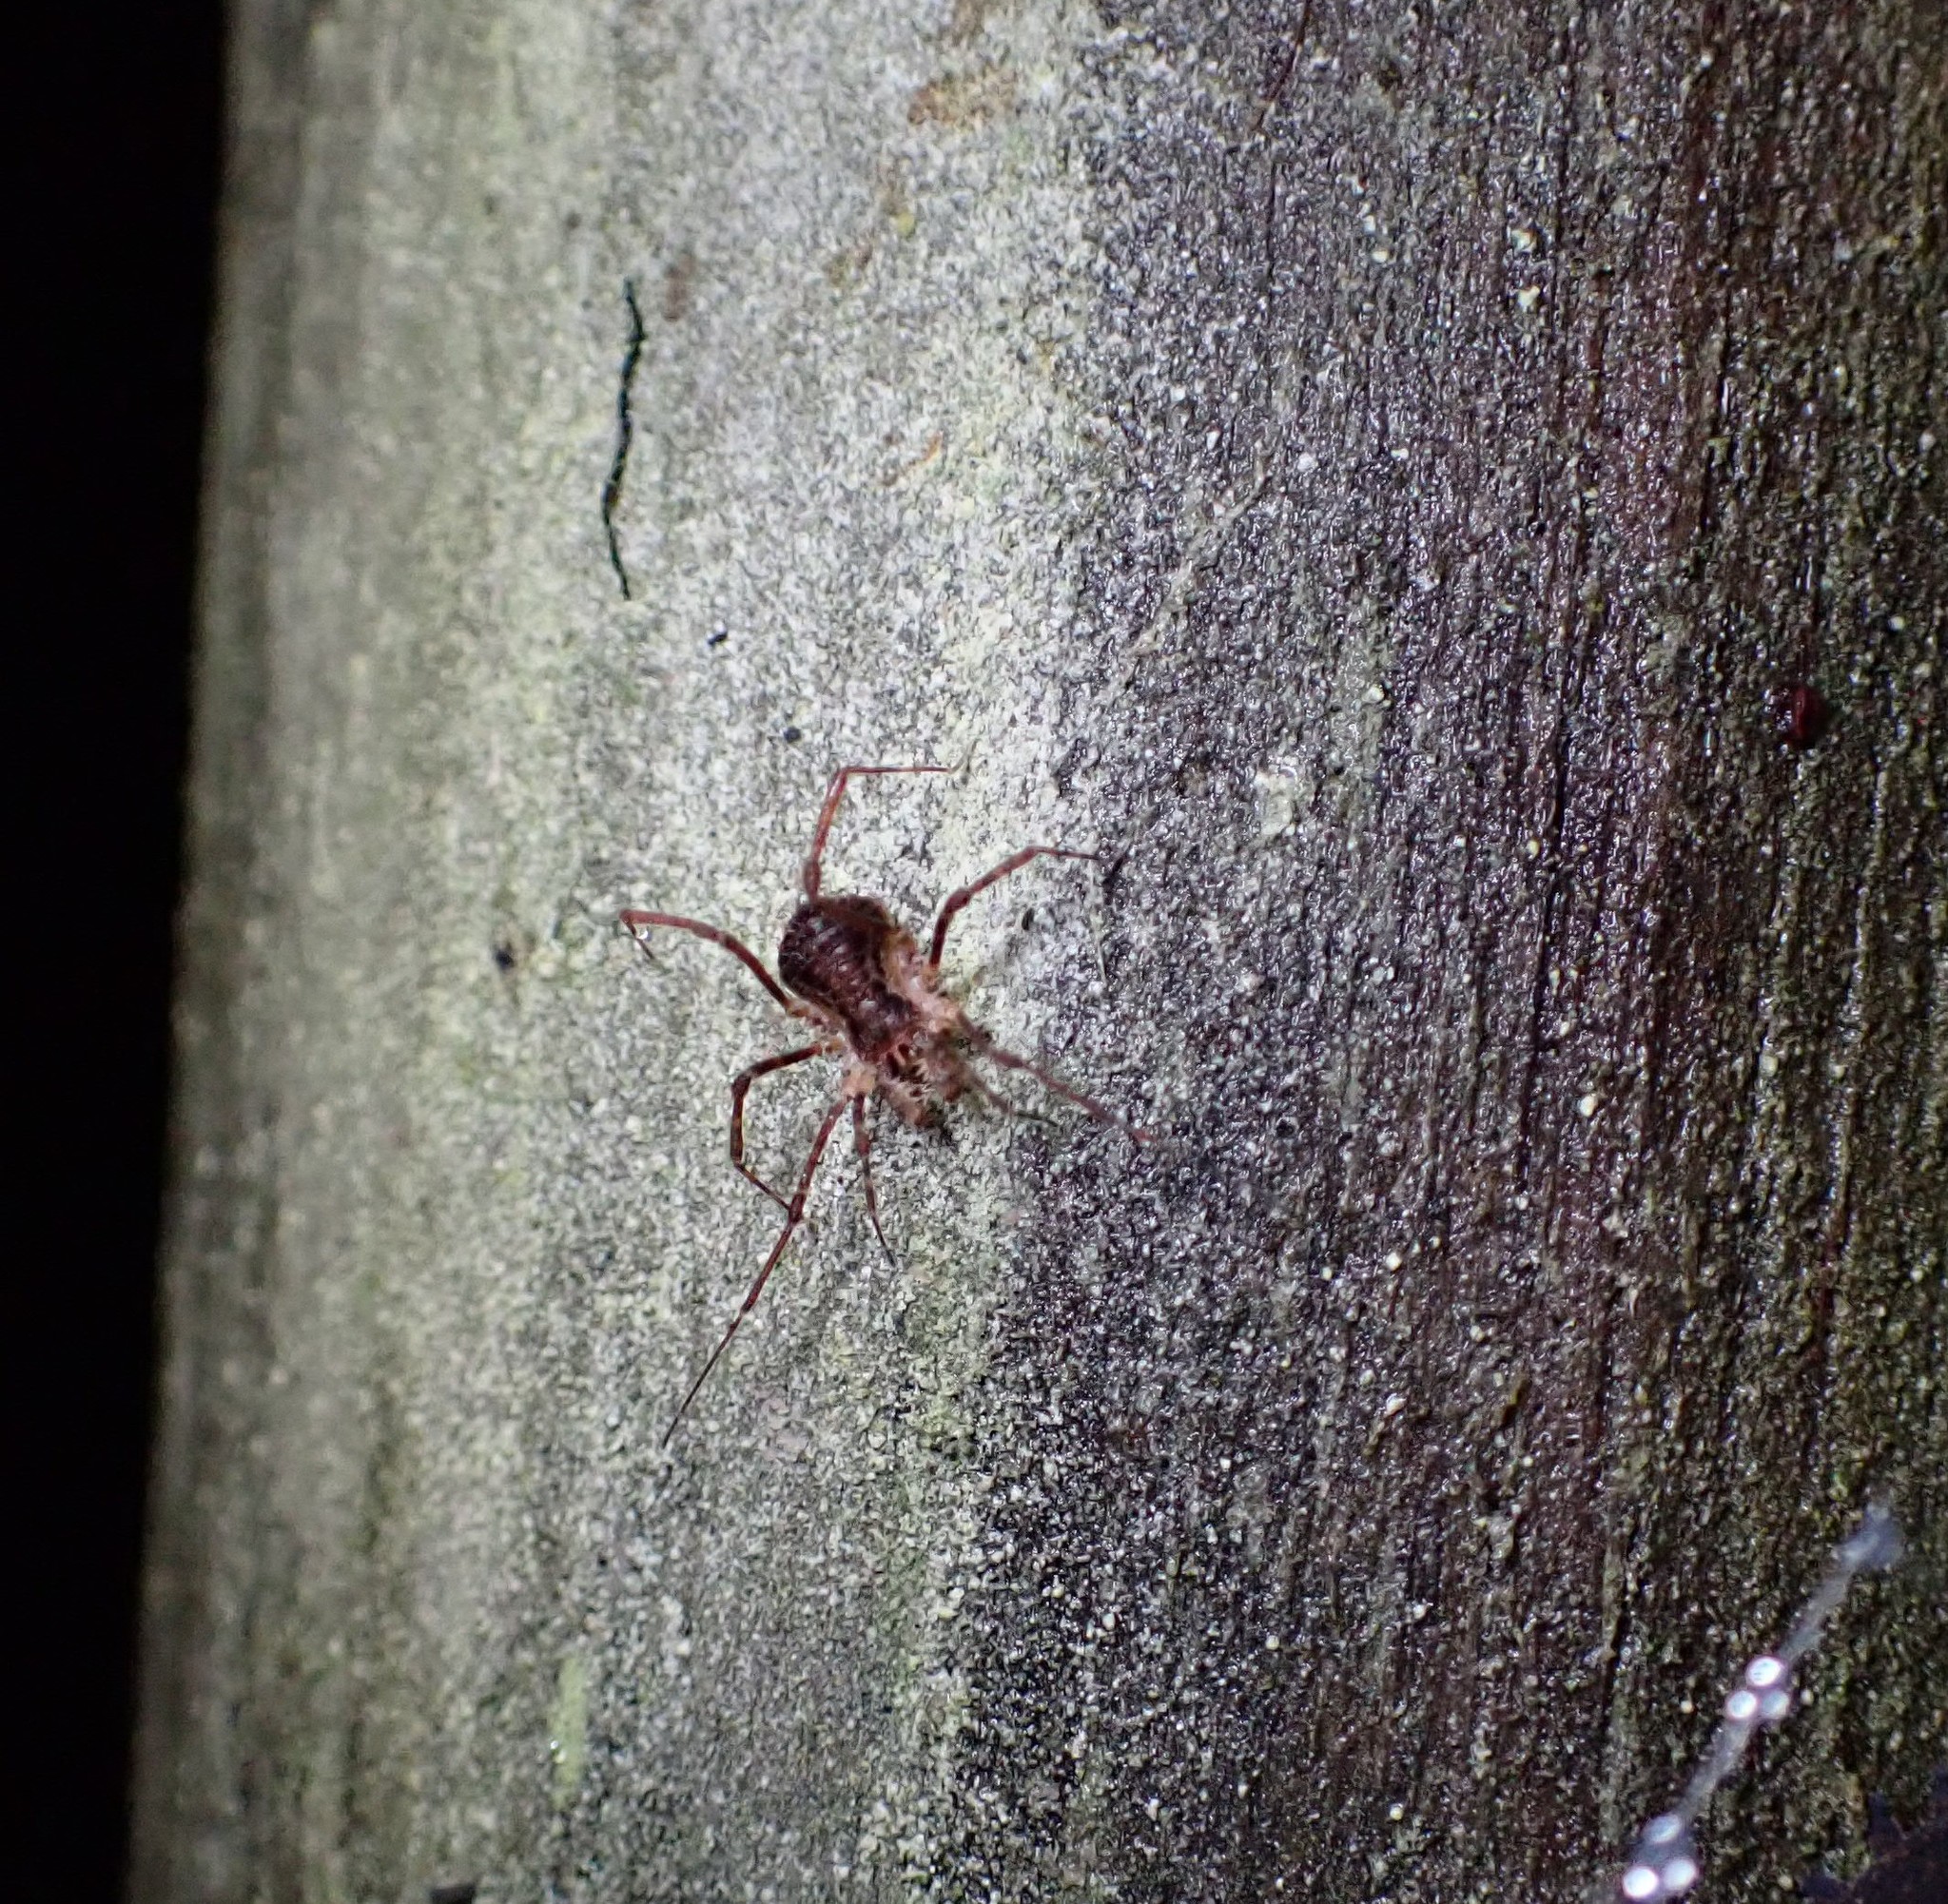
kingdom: Animalia
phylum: Arthropoda
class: Arachnida
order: Opiliones
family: Triaenonychidae
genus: Algidia
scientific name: Algidia chiltoni
